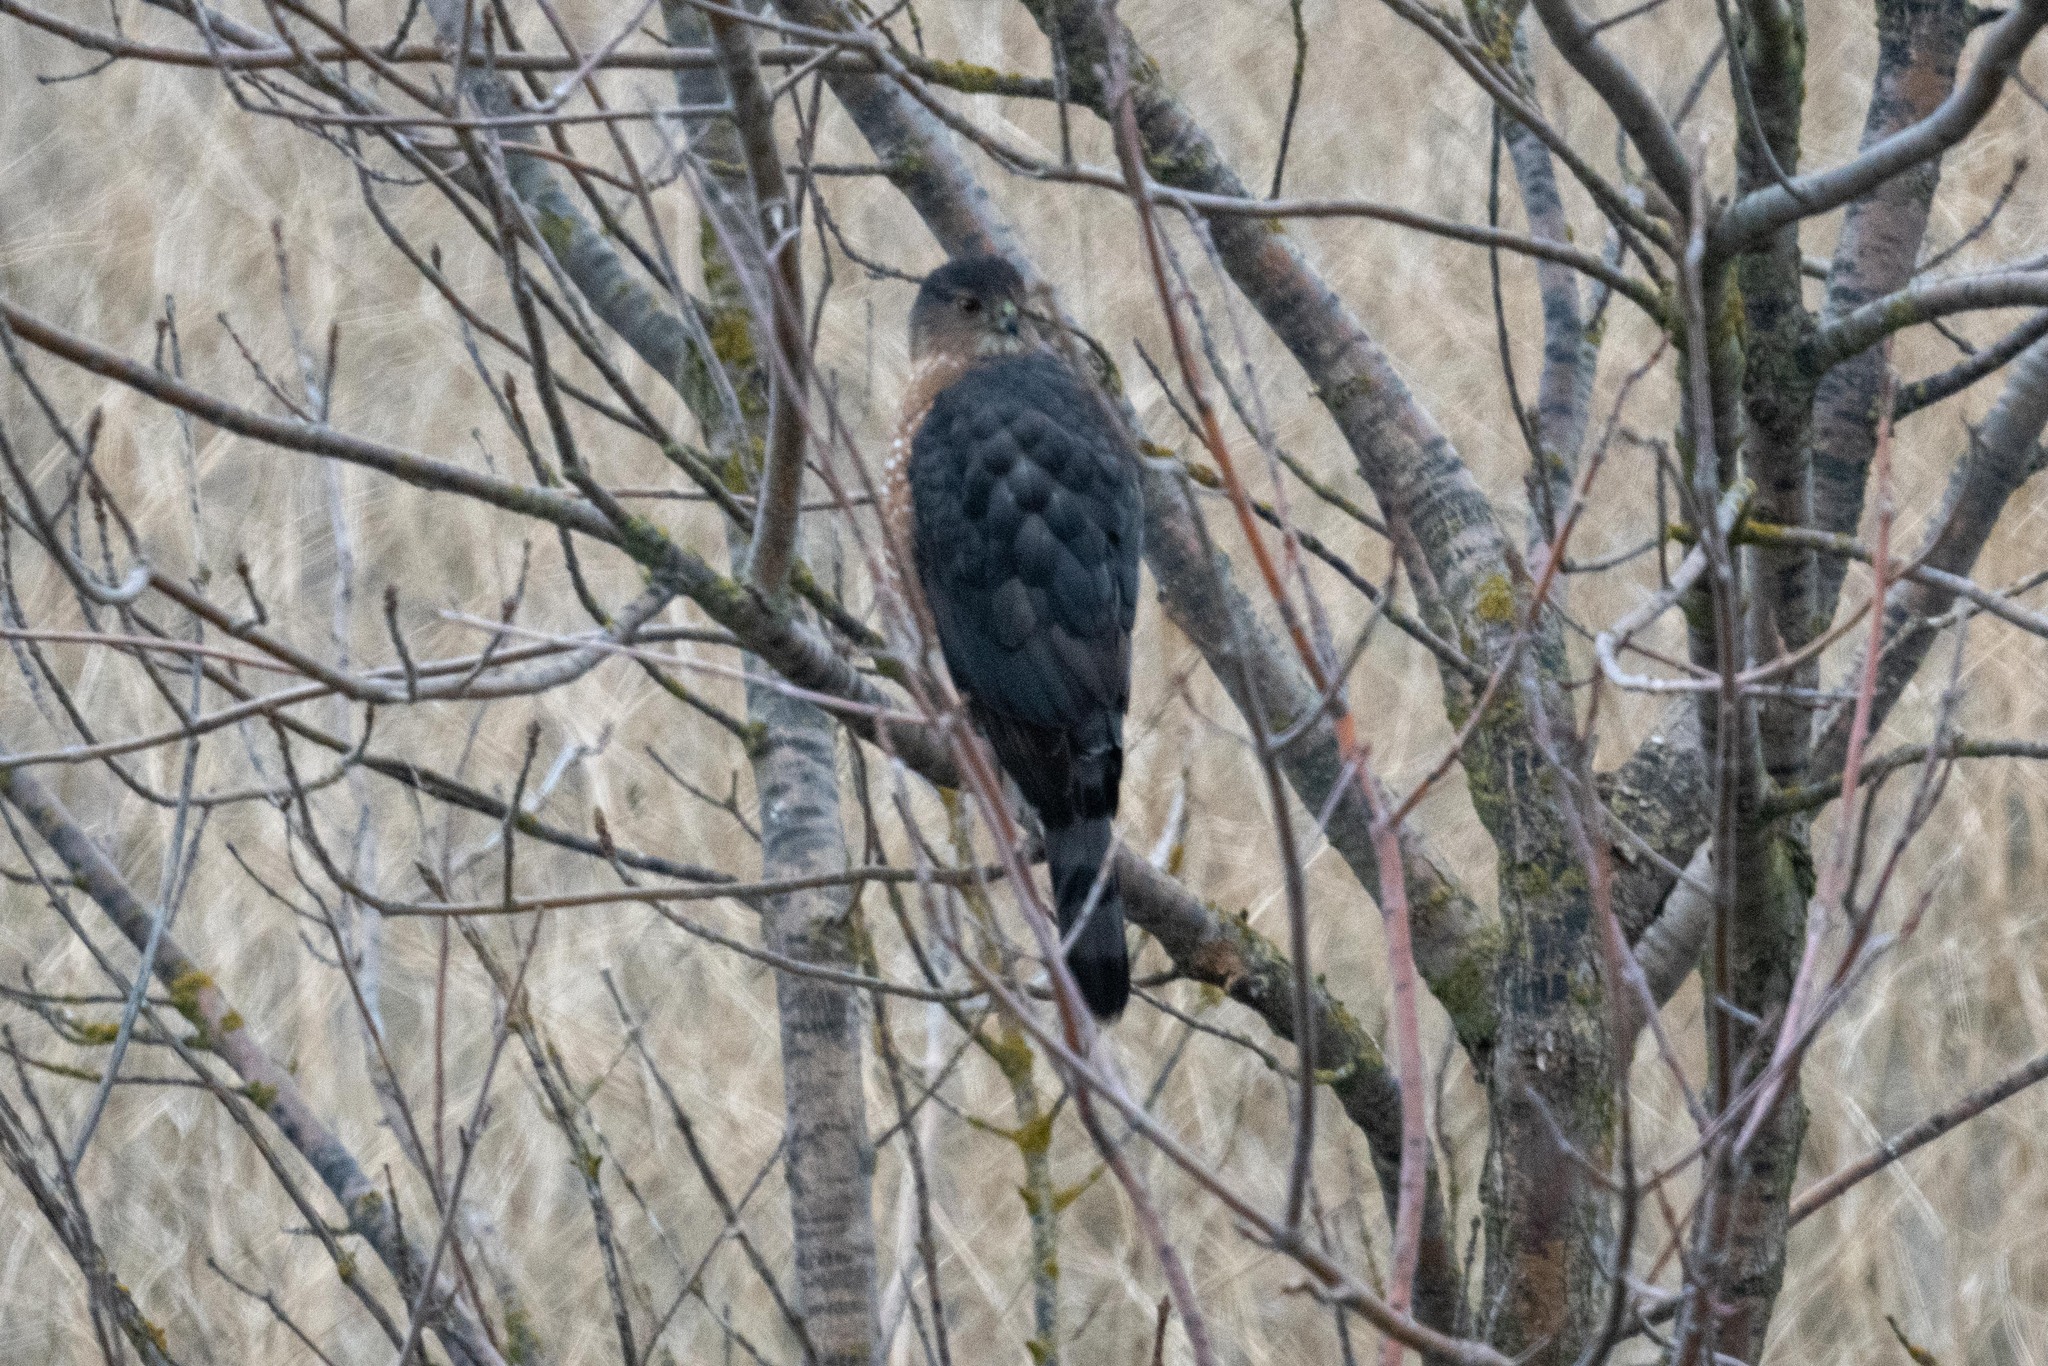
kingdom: Animalia
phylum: Chordata
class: Aves
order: Accipitriformes
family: Accipitridae
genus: Accipiter
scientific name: Accipiter cooperii
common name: Cooper's hawk
